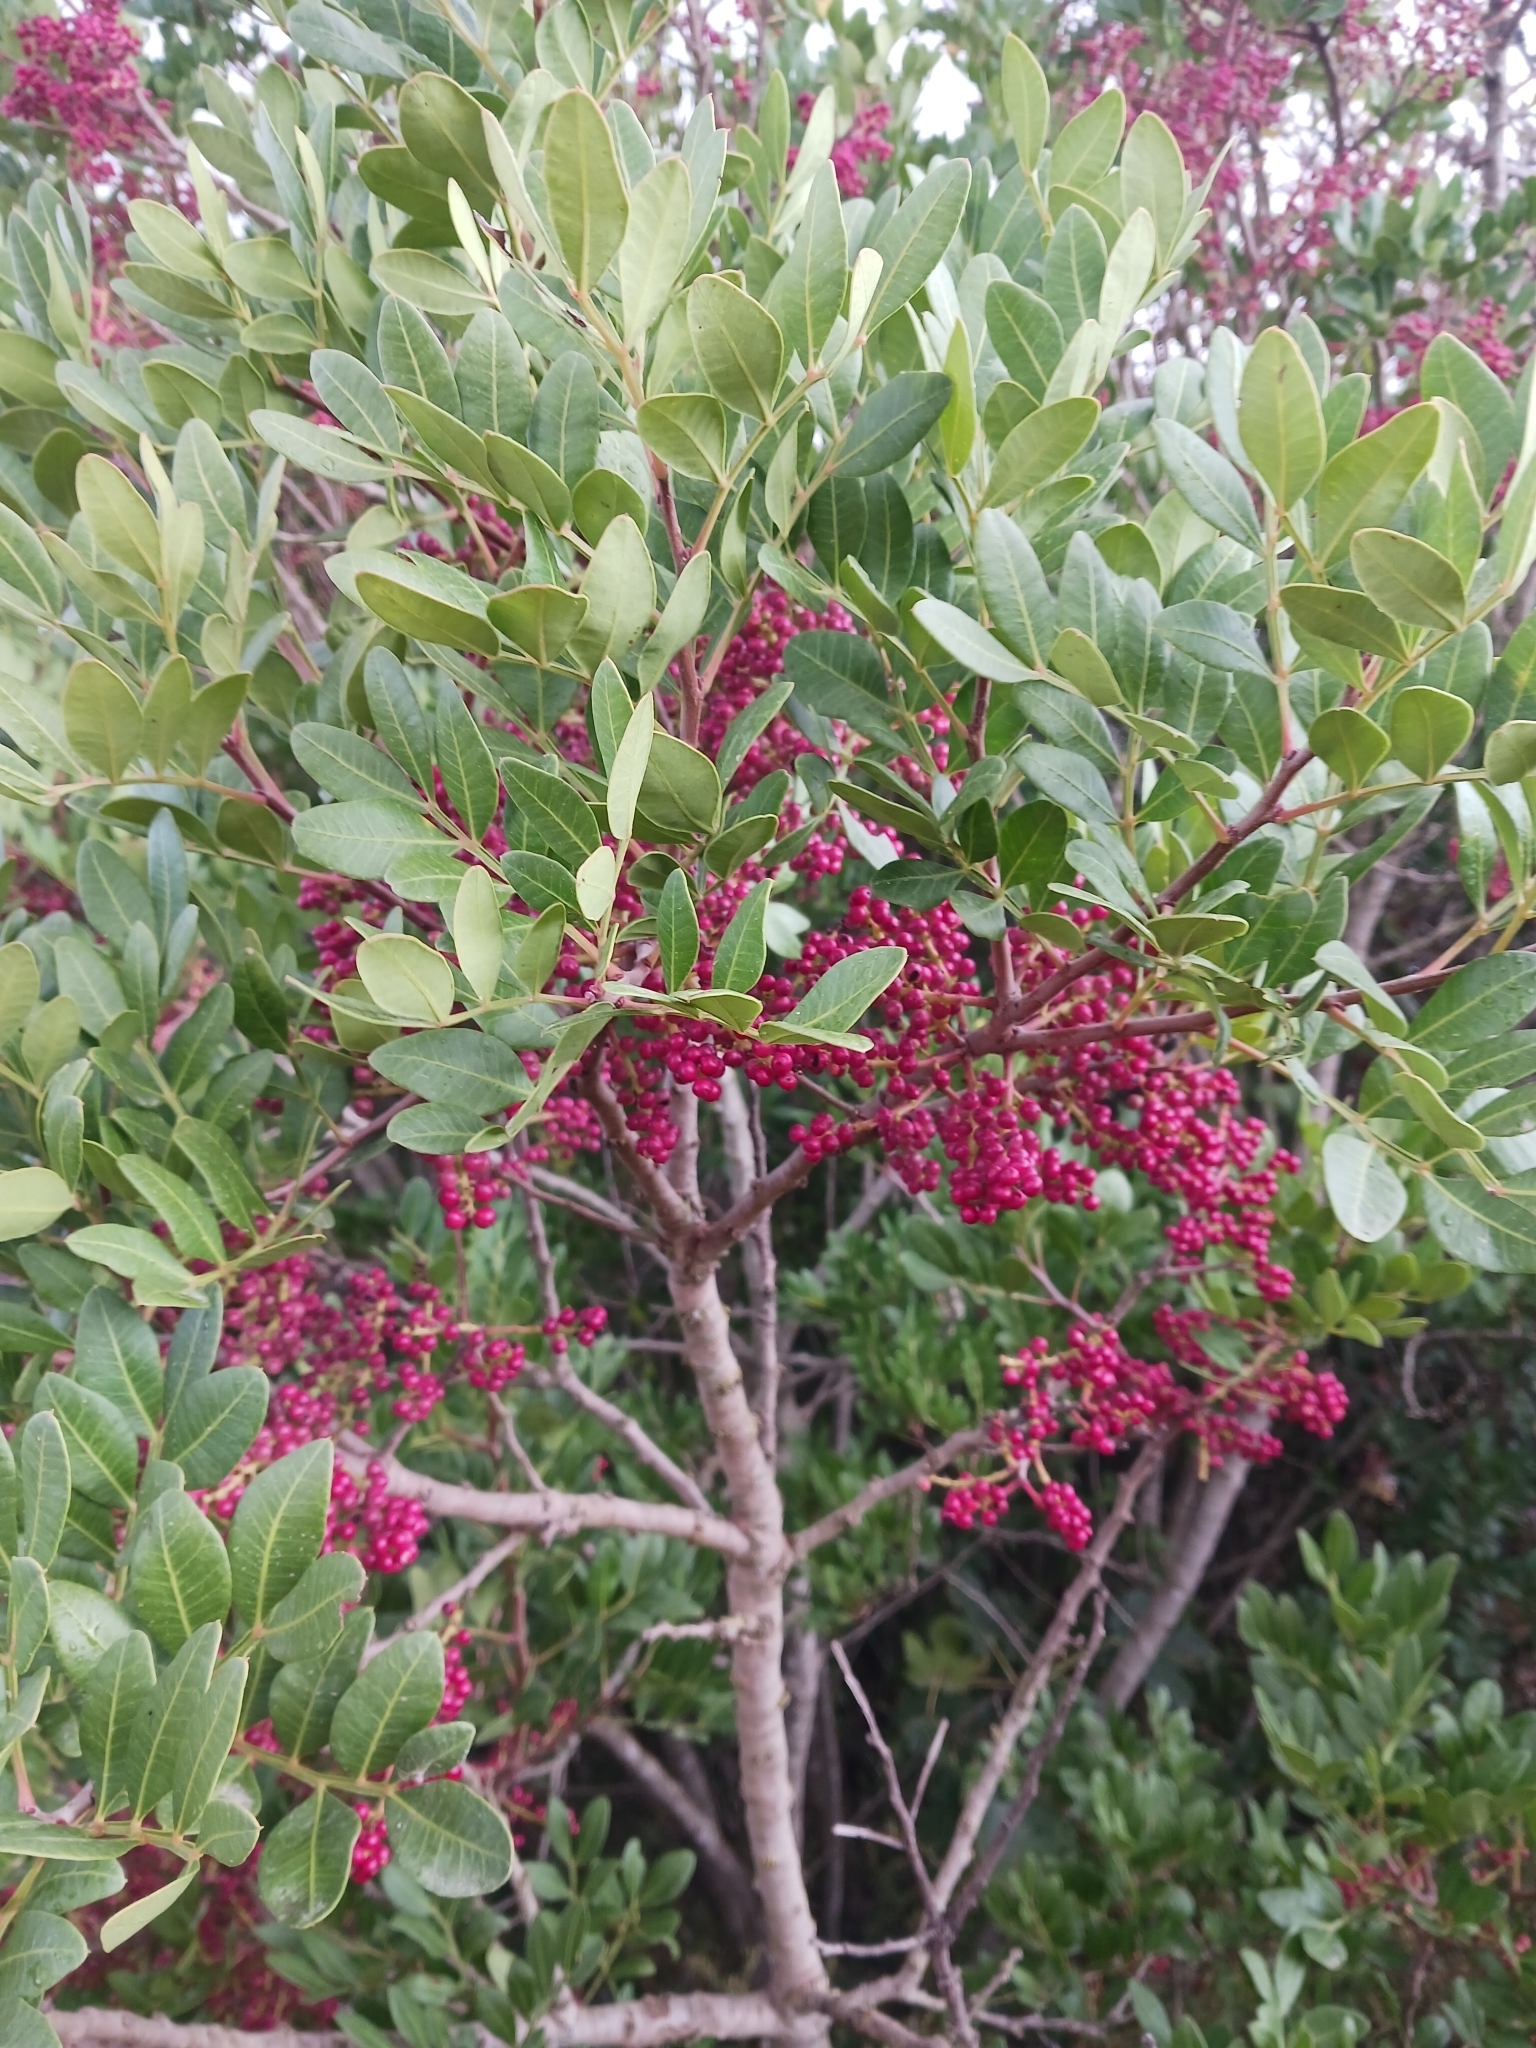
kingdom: Plantae
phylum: Tracheophyta
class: Magnoliopsida
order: Sapindales
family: Anacardiaceae
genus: Pistacia
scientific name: Pistacia lentiscus
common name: Lentisk
